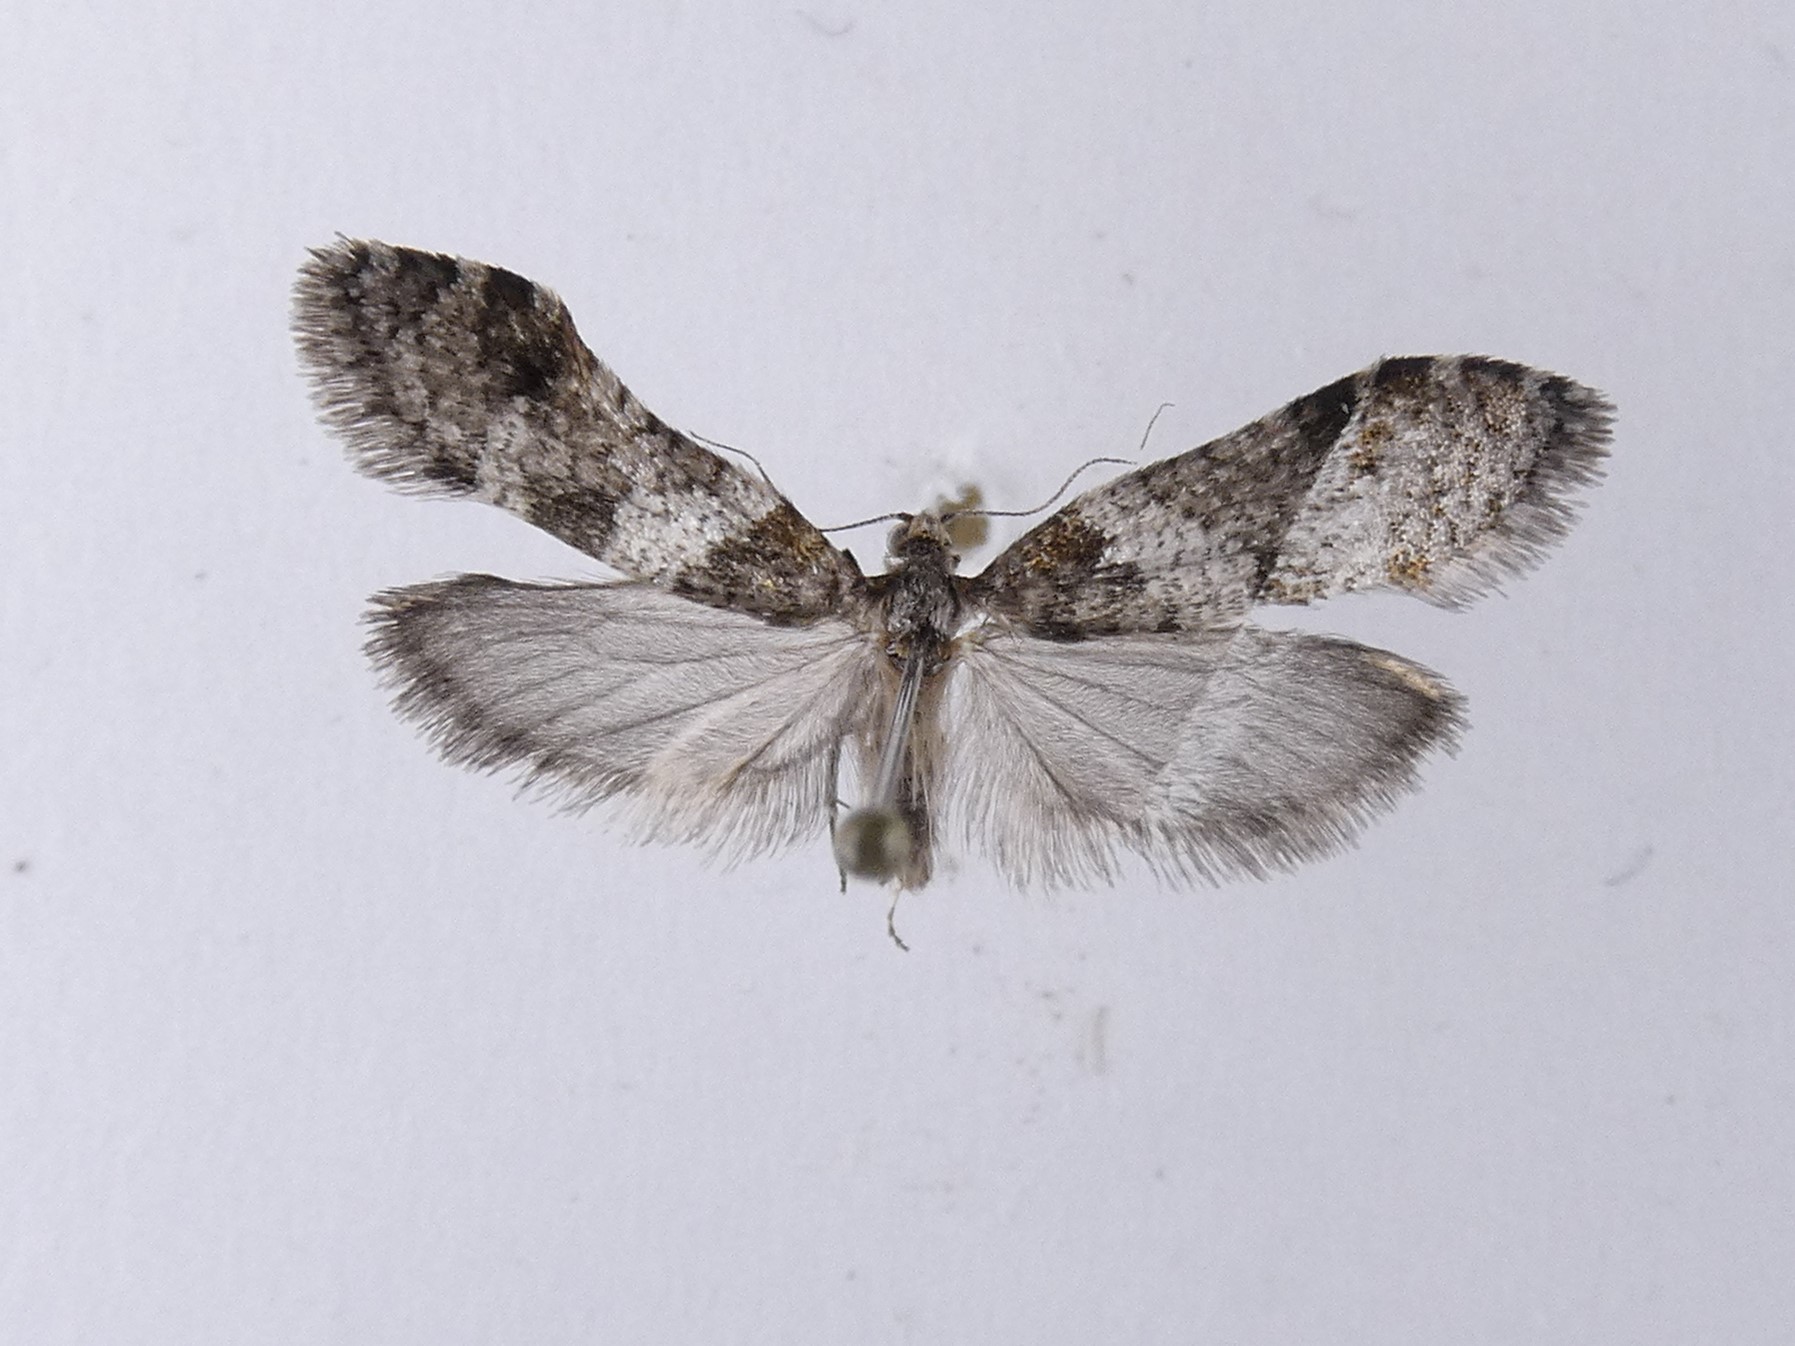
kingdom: Animalia
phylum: Arthropoda
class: Insecta
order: Lepidoptera
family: Psychidae
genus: Lepidoscia
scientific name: Lepidoscia heliochares
